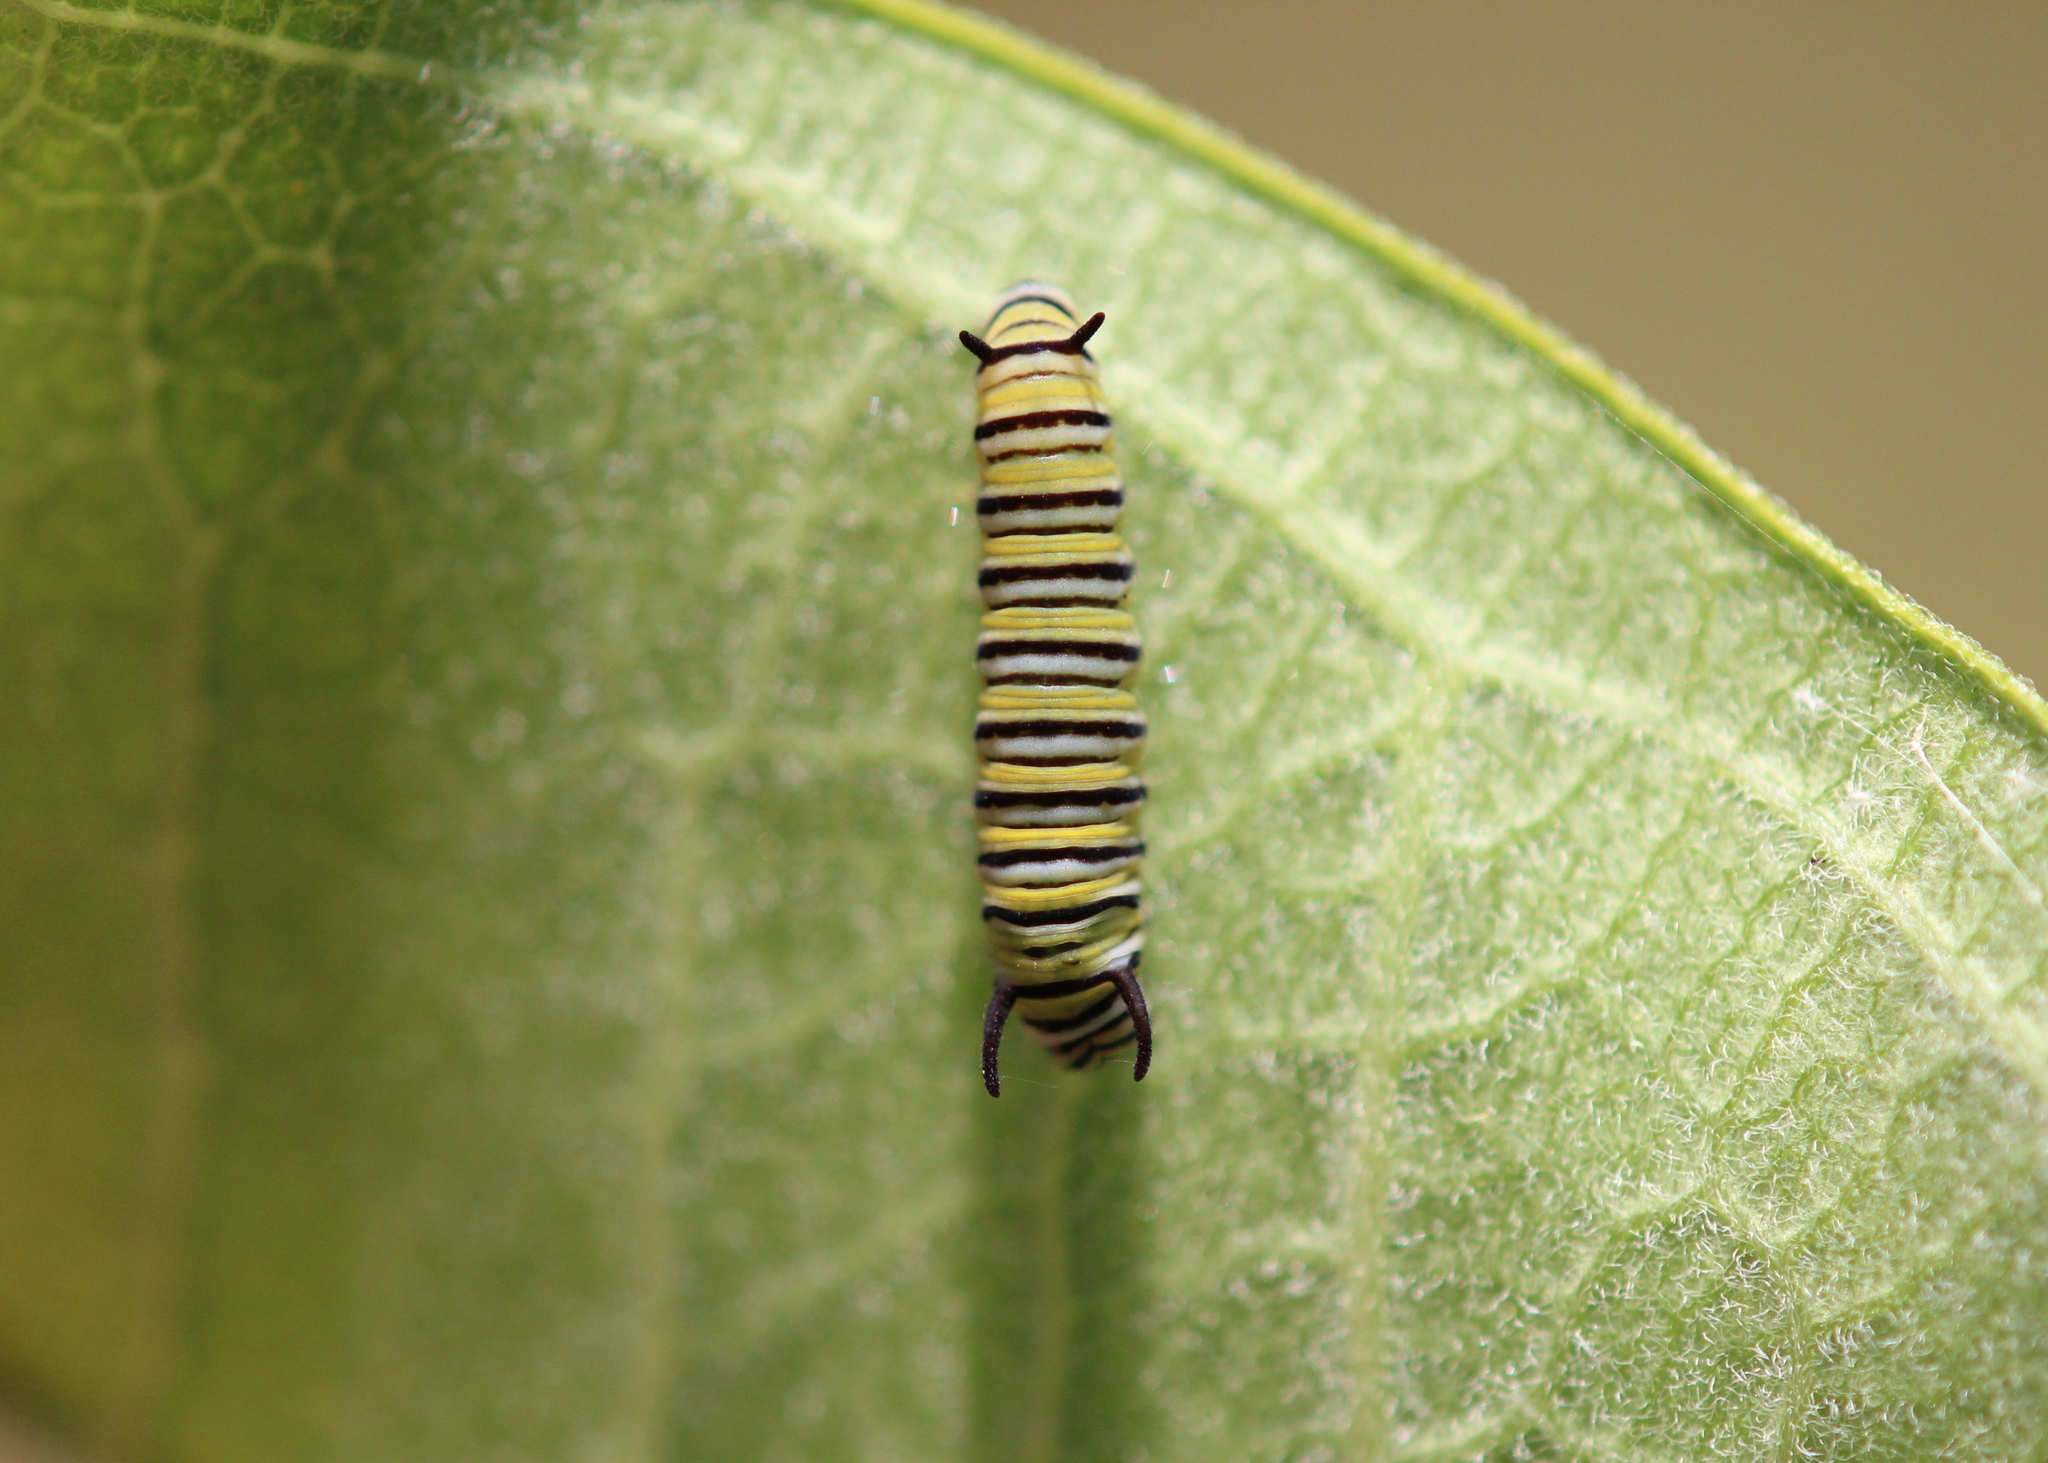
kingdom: Animalia
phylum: Arthropoda
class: Insecta
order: Lepidoptera
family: Nymphalidae
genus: Danaus
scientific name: Danaus plexippus
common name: Monarch
